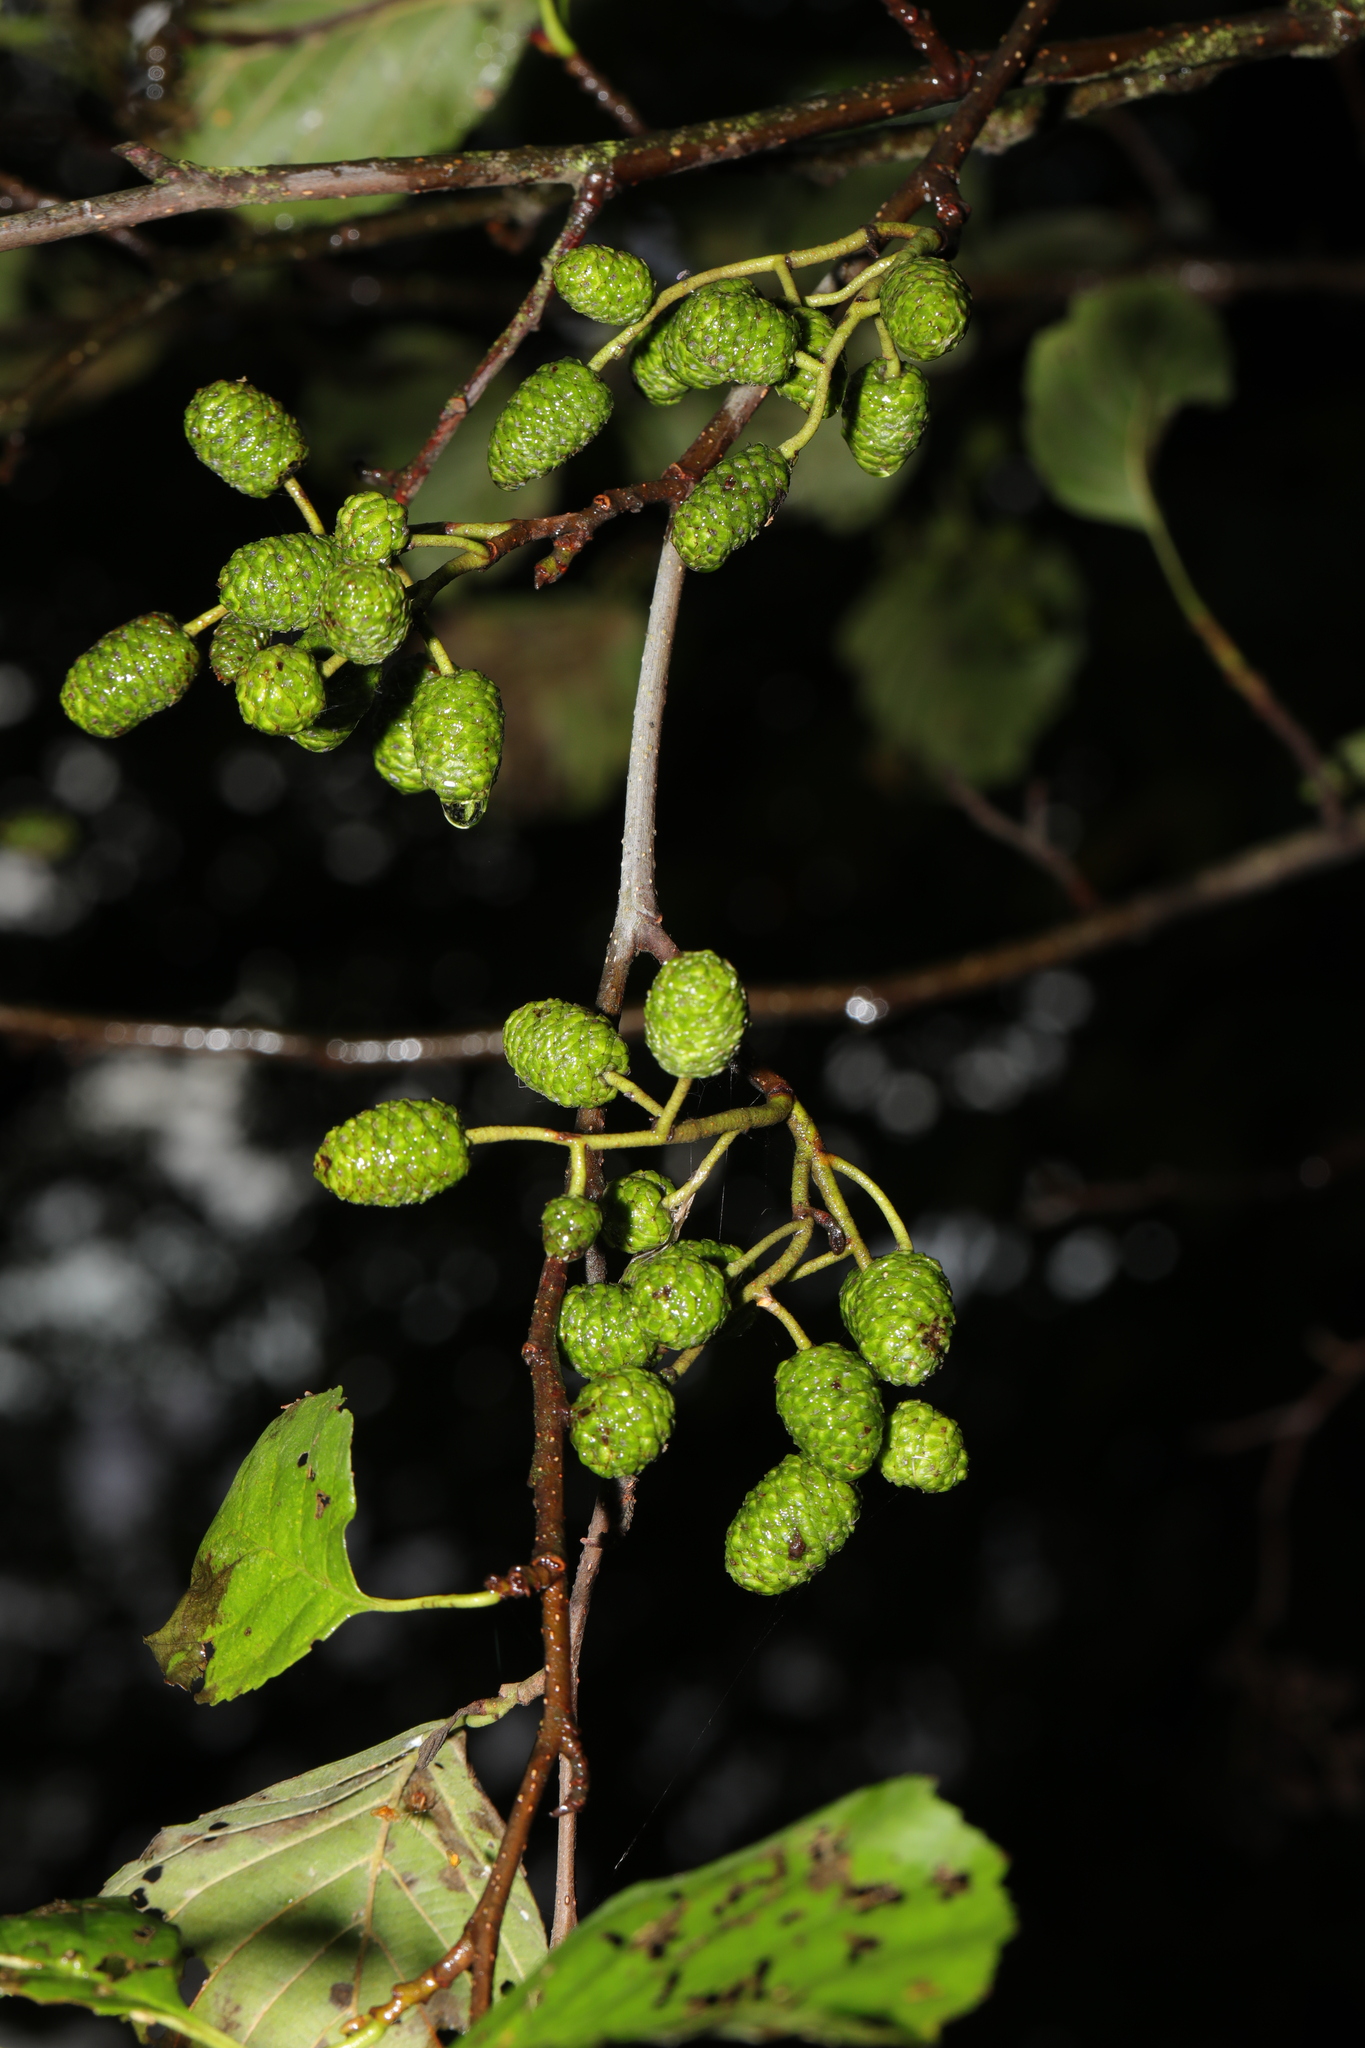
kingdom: Plantae
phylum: Tracheophyta
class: Magnoliopsida
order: Fagales
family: Betulaceae
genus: Alnus
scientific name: Alnus glutinosa
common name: Black alder
